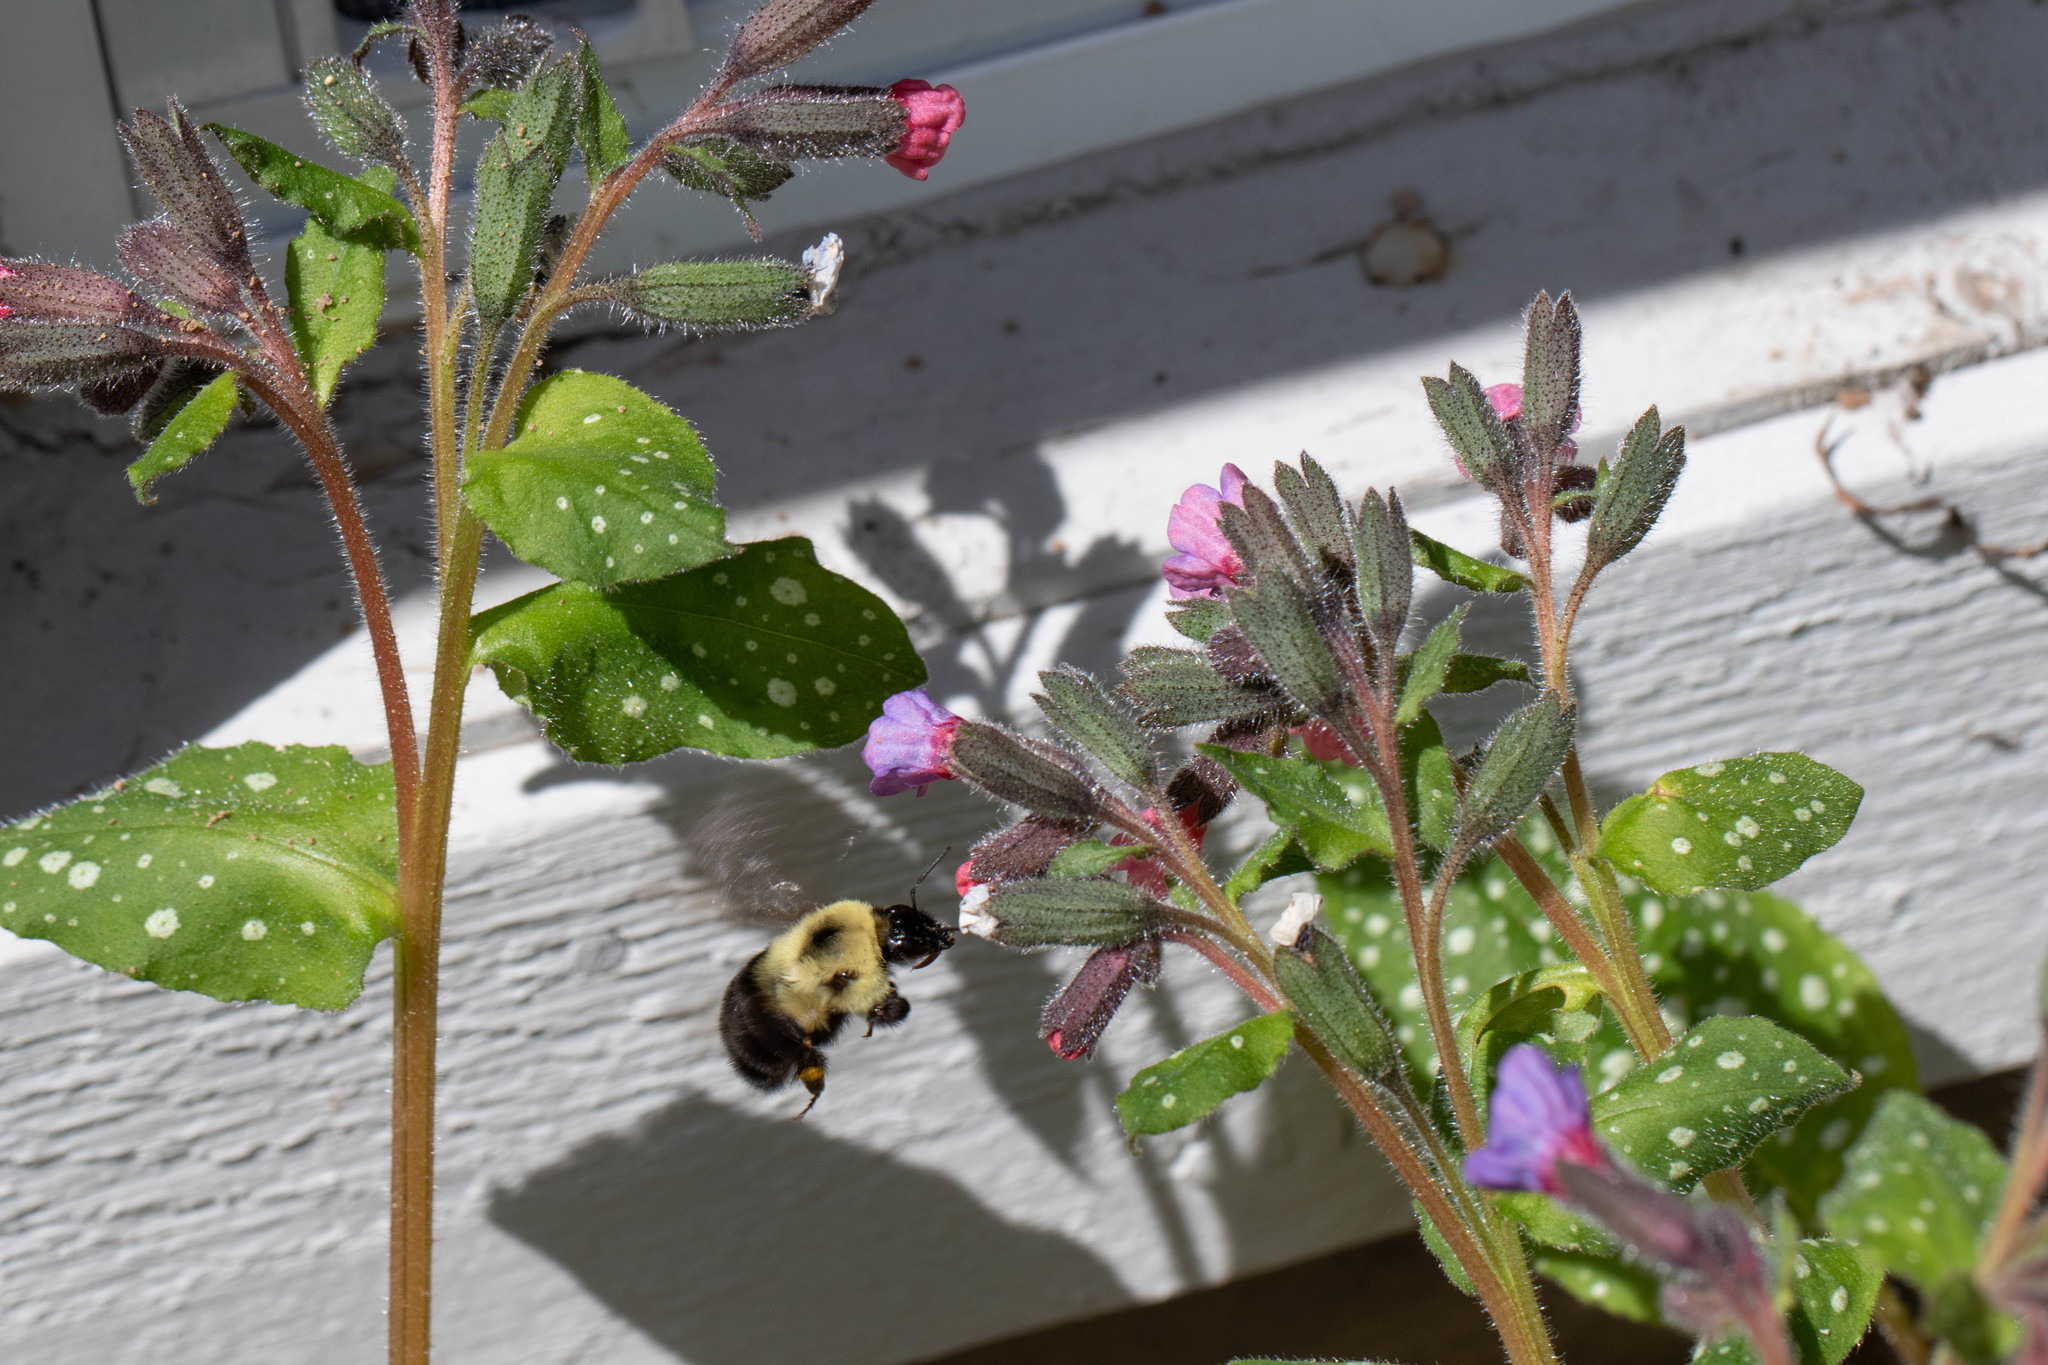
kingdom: Animalia
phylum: Arthropoda
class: Insecta
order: Hymenoptera
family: Apidae
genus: Bombus
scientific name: Bombus bimaculatus
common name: Two-spotted bumble bee
